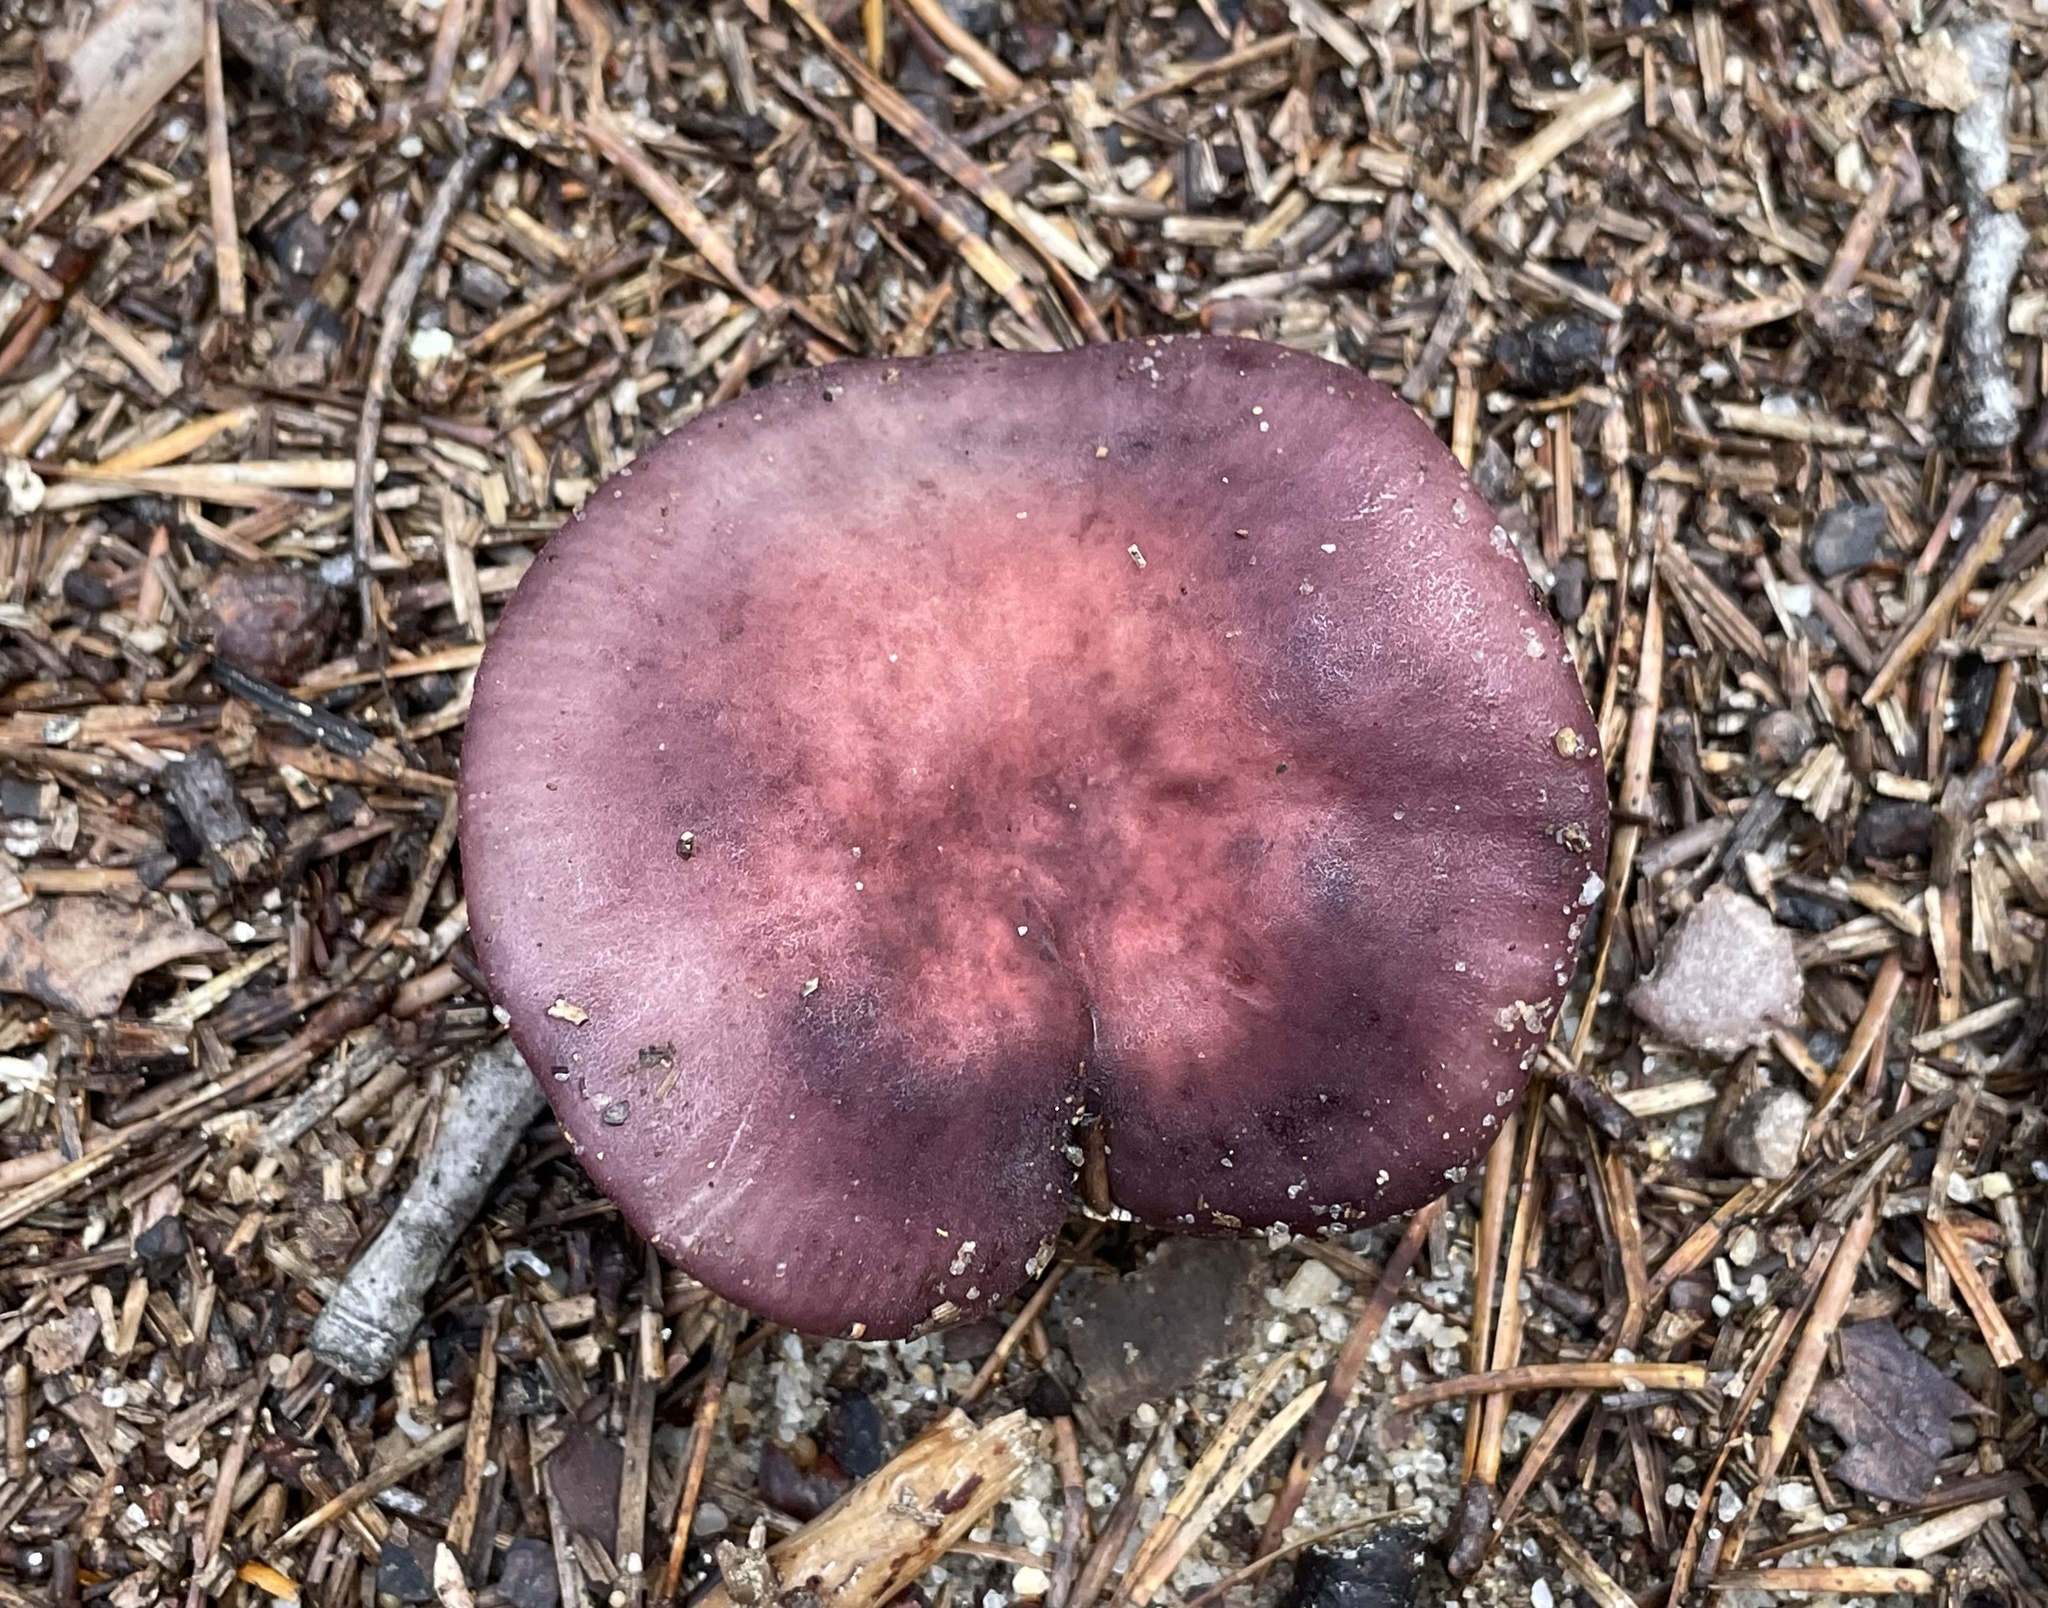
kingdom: Fungi
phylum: Basidiomycota
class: Agaricomycetes
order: Russulales
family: Russulaceae
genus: Russula
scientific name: Russula mariae
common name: Purple-bloom russula
